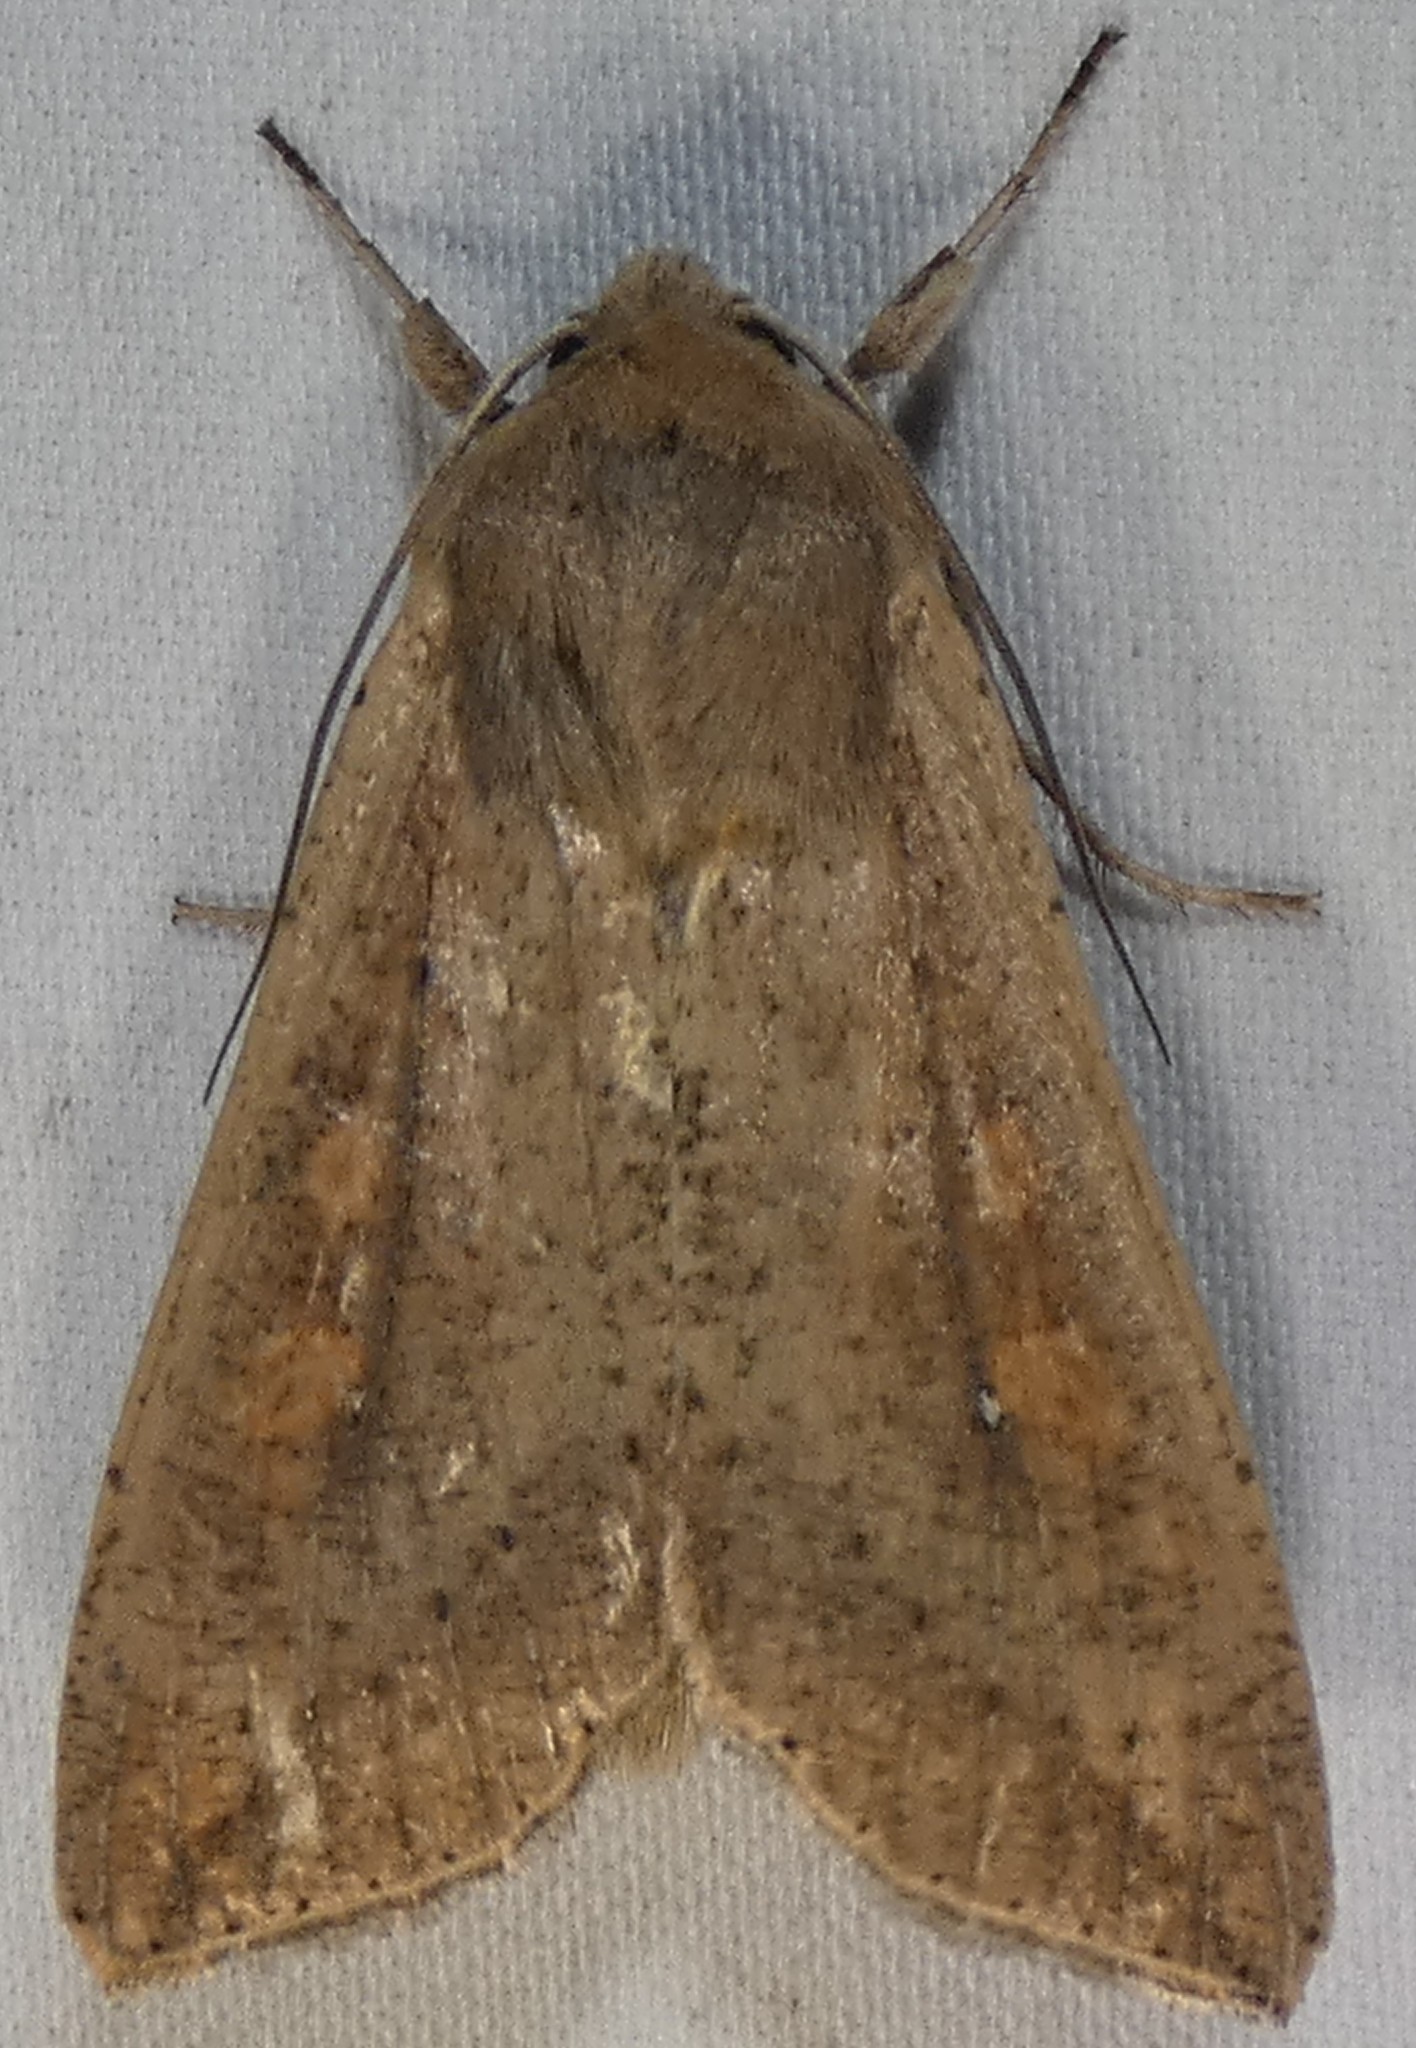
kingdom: Animalia
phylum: Arthropoda
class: Insecta
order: Lepidoptera
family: Noctuidae
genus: Mythimna
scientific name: Mythimna unipuncta
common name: White-speck
